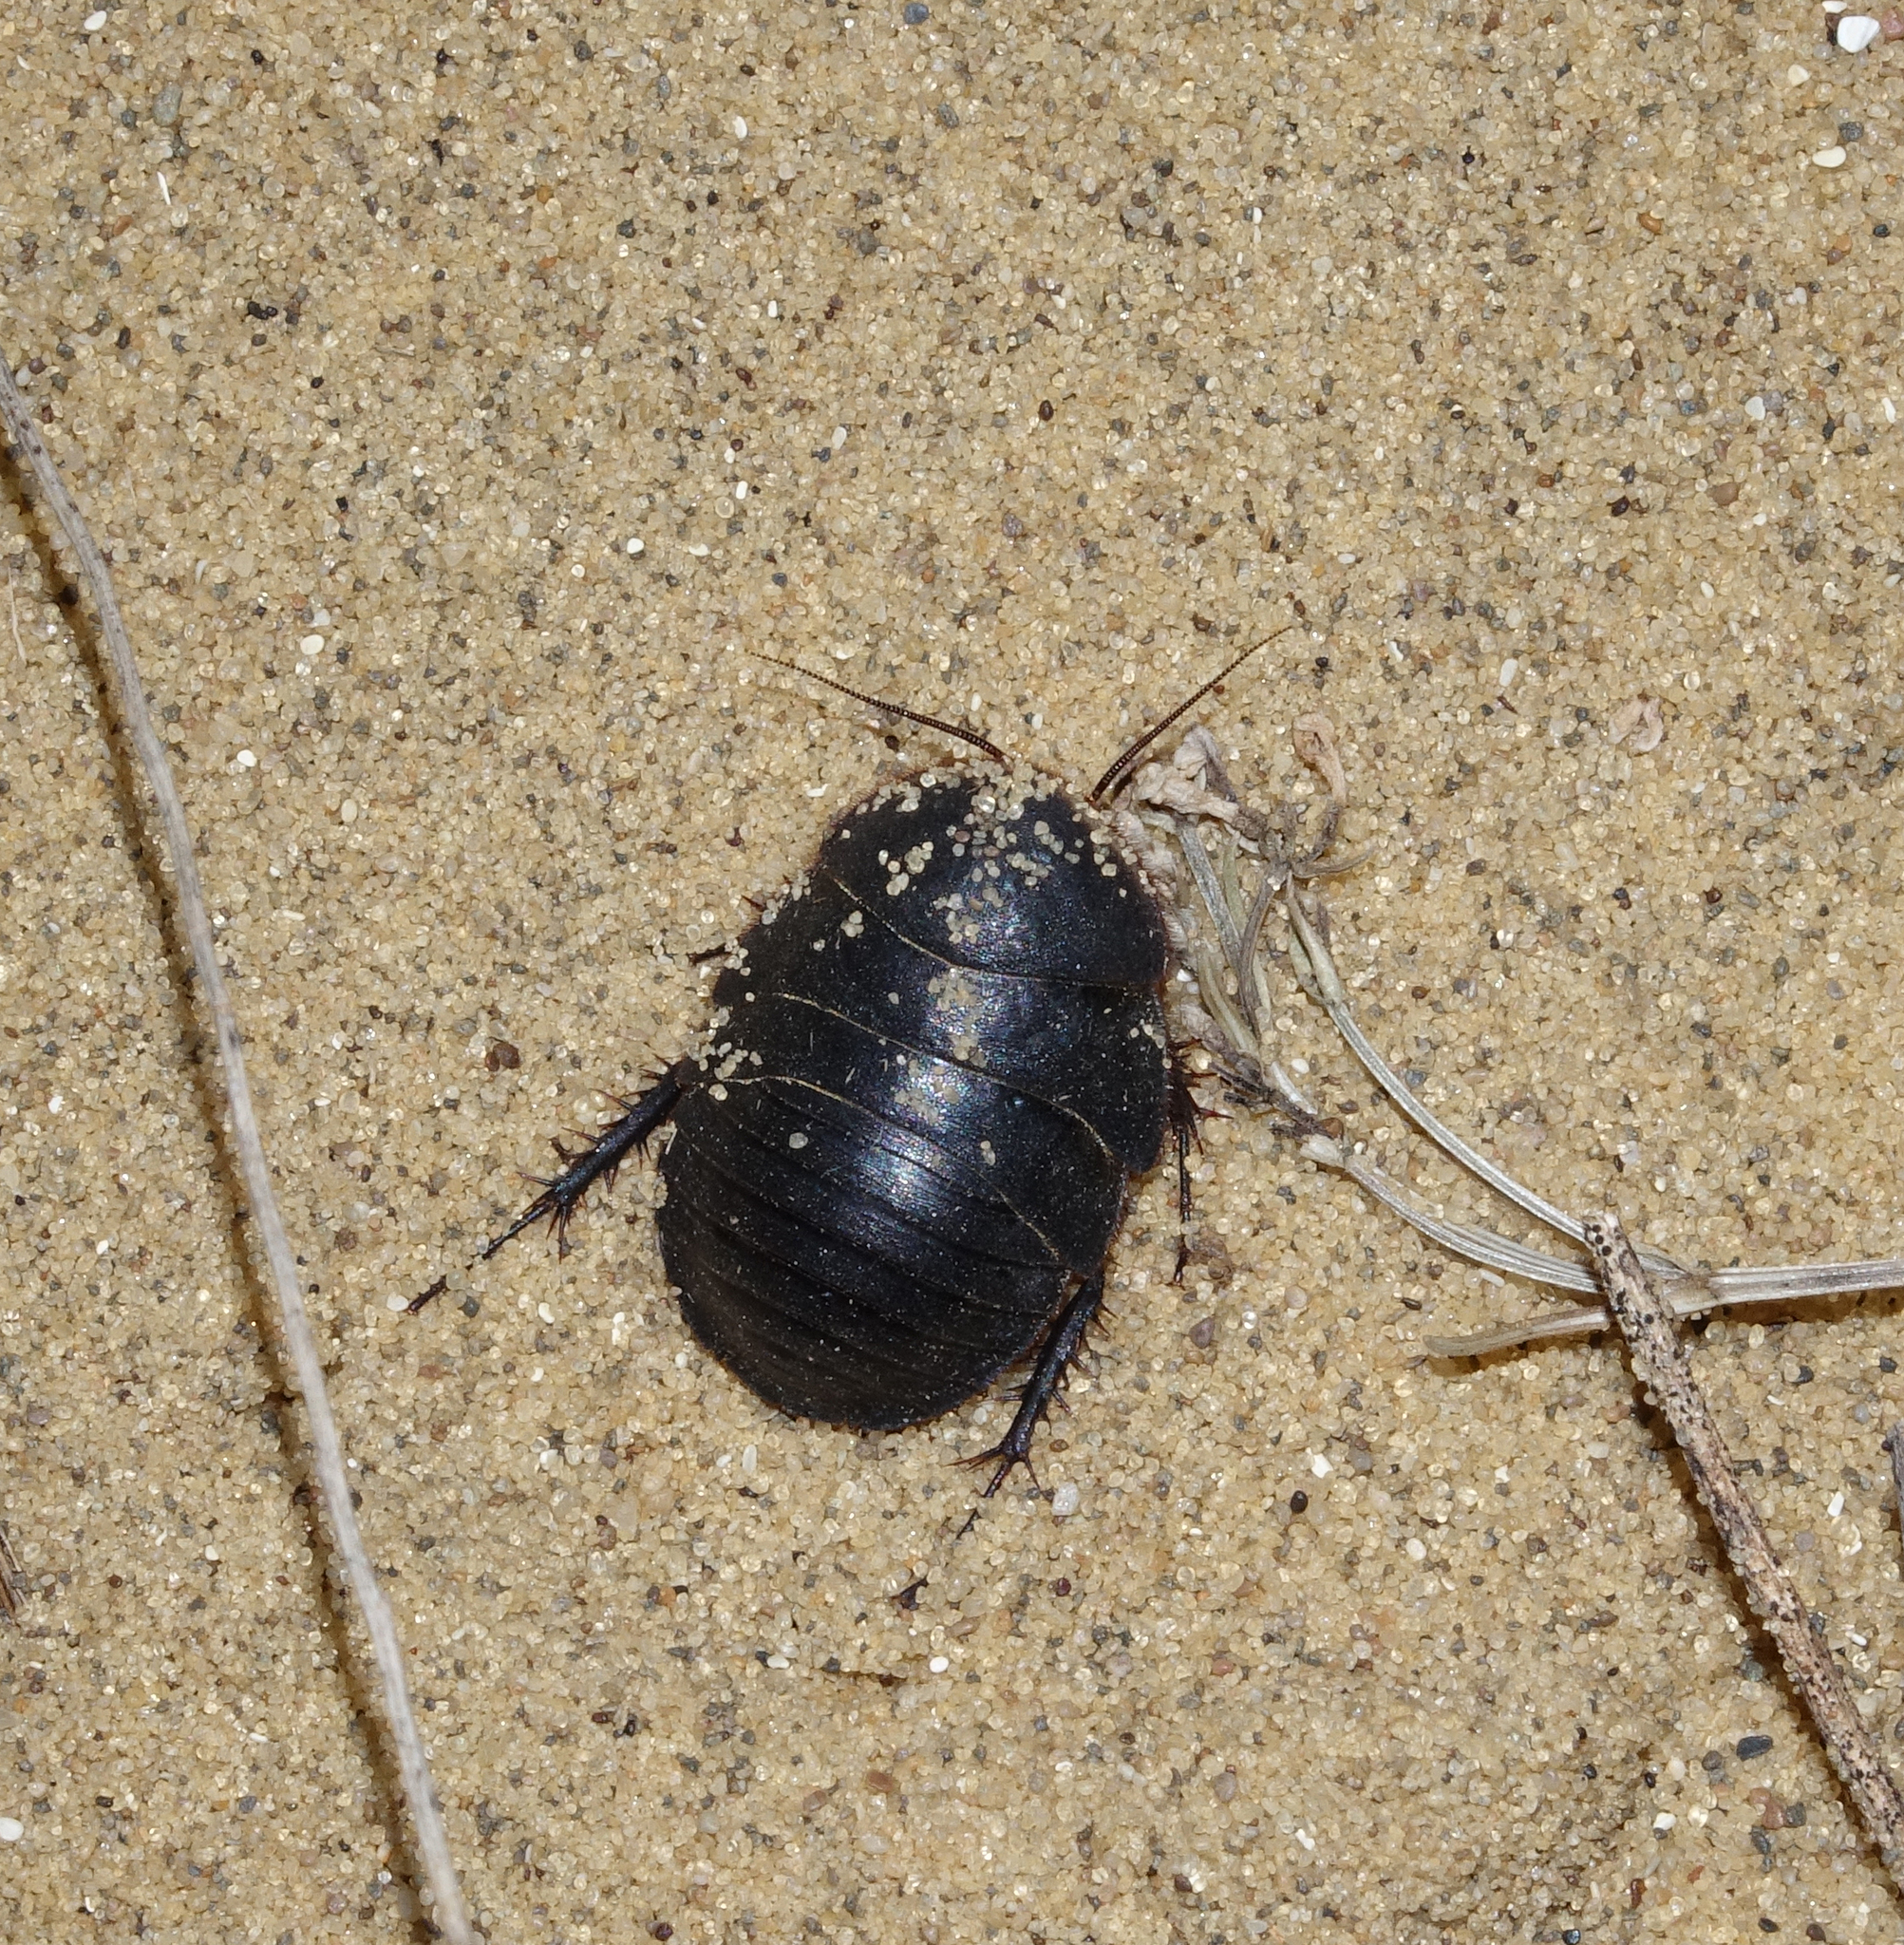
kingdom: Animalia
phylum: Arthropoda
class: Insecta
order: Blattodea
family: Corydiidae
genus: Polyphaga
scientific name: Polyphaga aegyptiaca
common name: Egyptian cockroach
